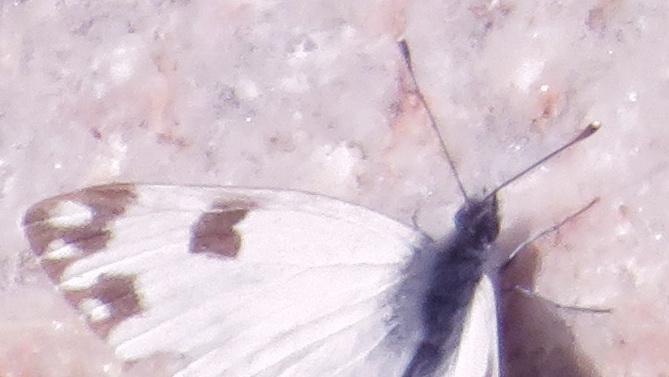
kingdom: Animalia
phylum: Arthropoda
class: Insecta
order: Lepidoptera
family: Pieridae
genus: Pontia
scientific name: Pontia helice
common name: Meadow white
